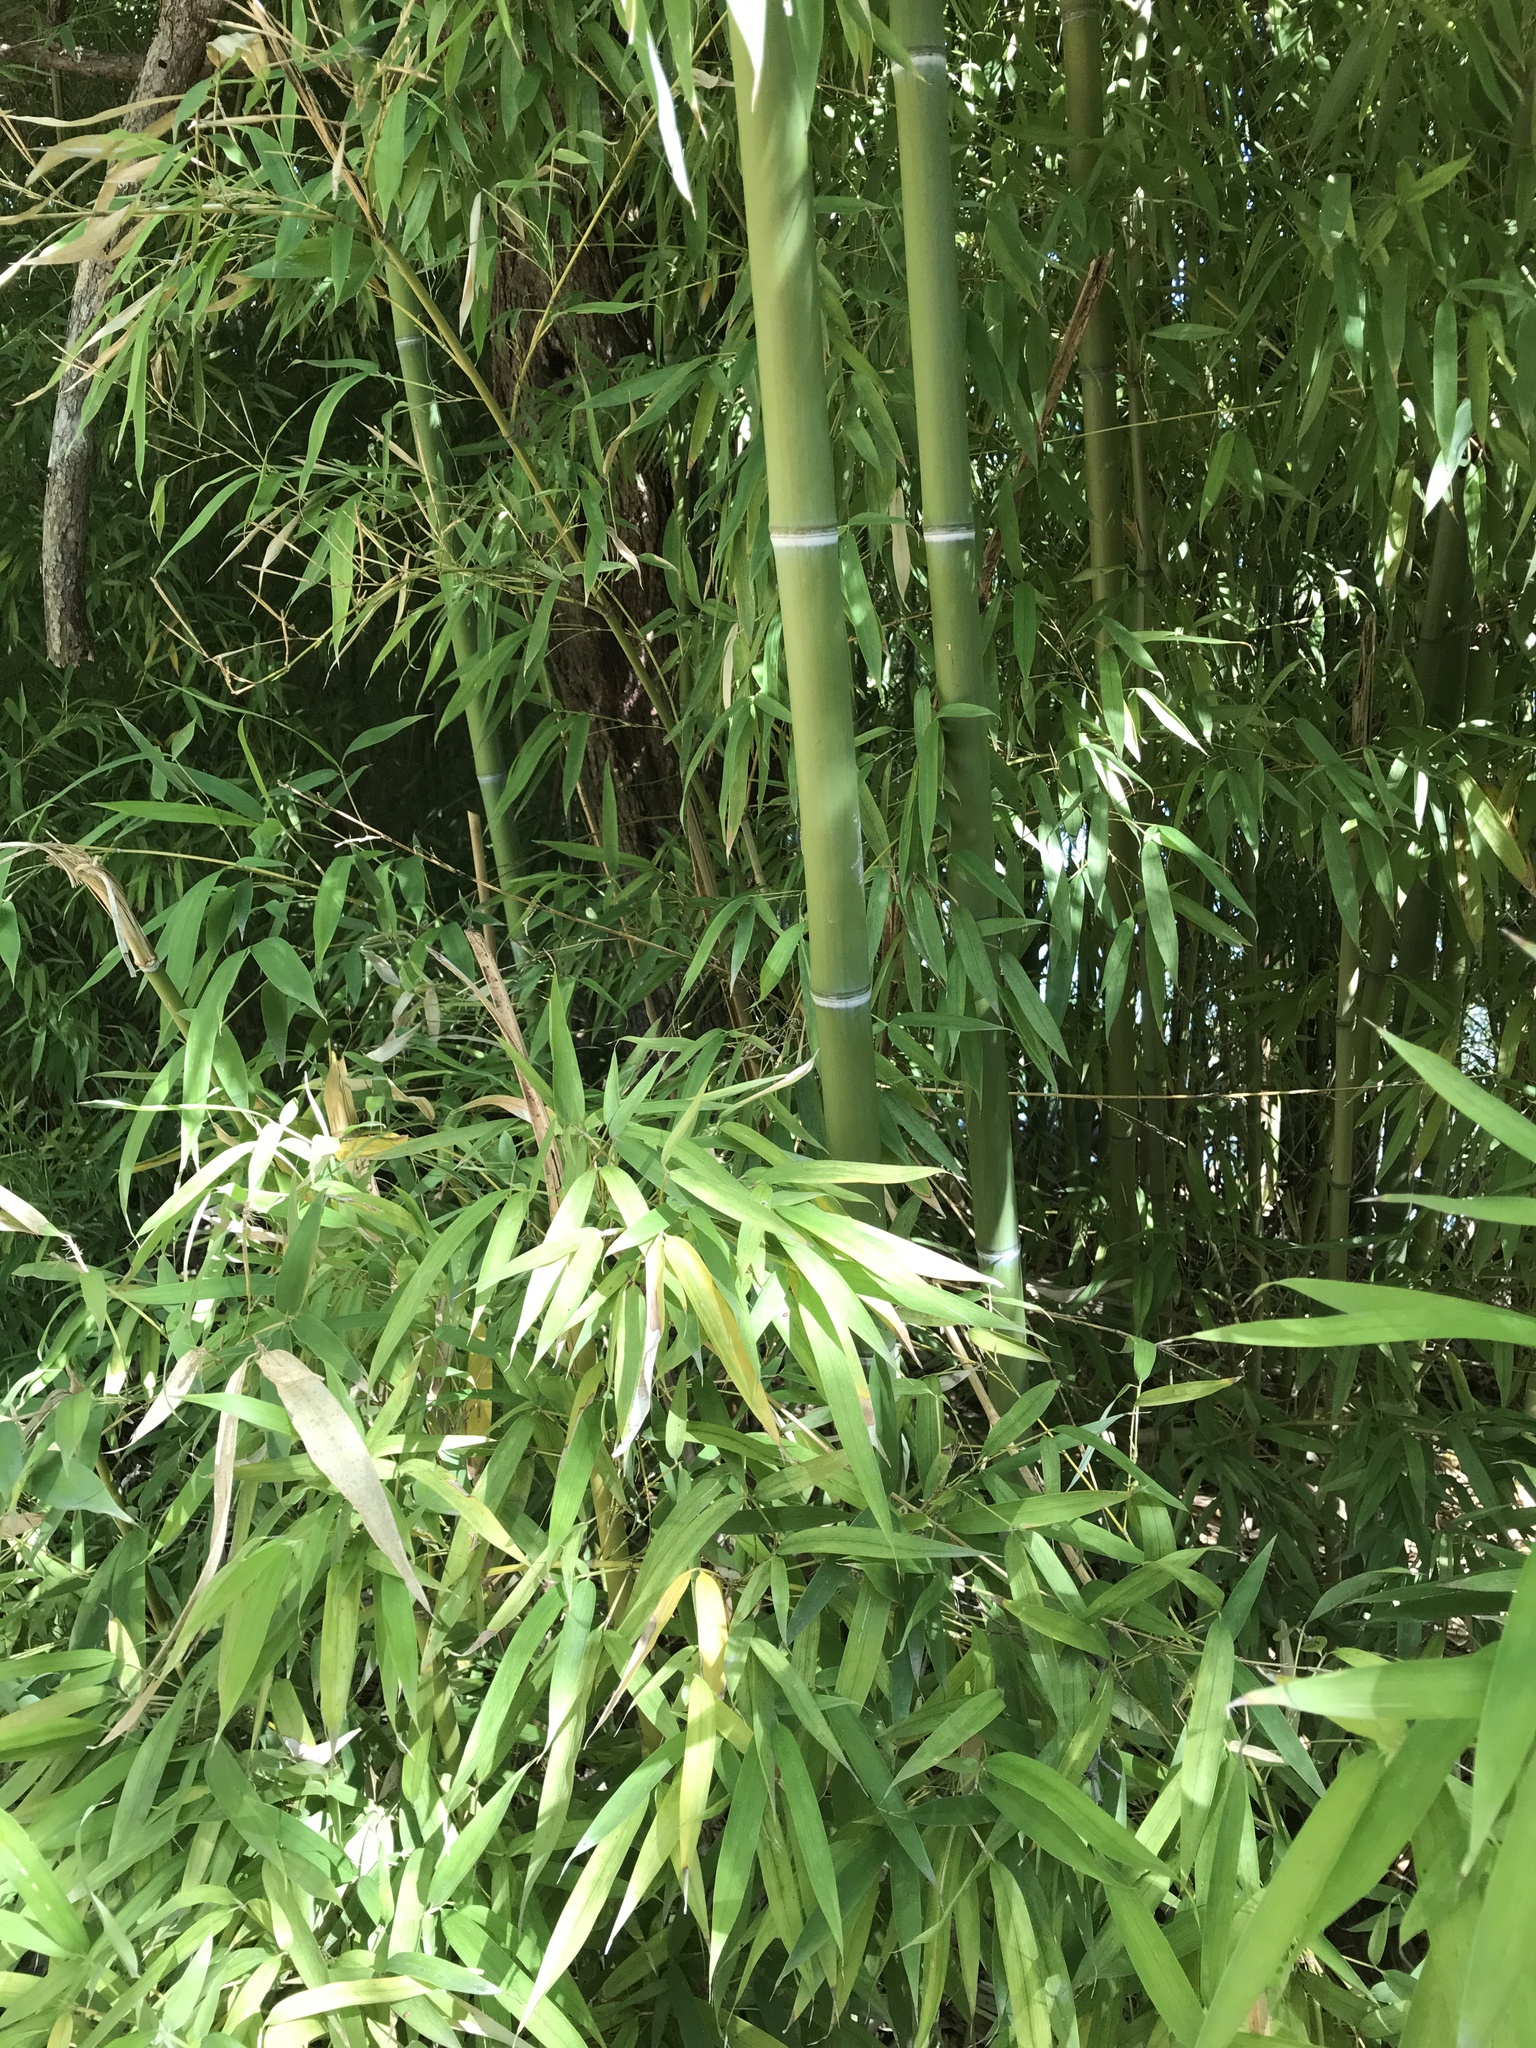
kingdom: Plantae
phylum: Tracheophyta
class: Liliopsida
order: Poales
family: Poaceae
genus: Phyllostachys
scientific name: Phyllostachys aurea
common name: Golden bamboo
